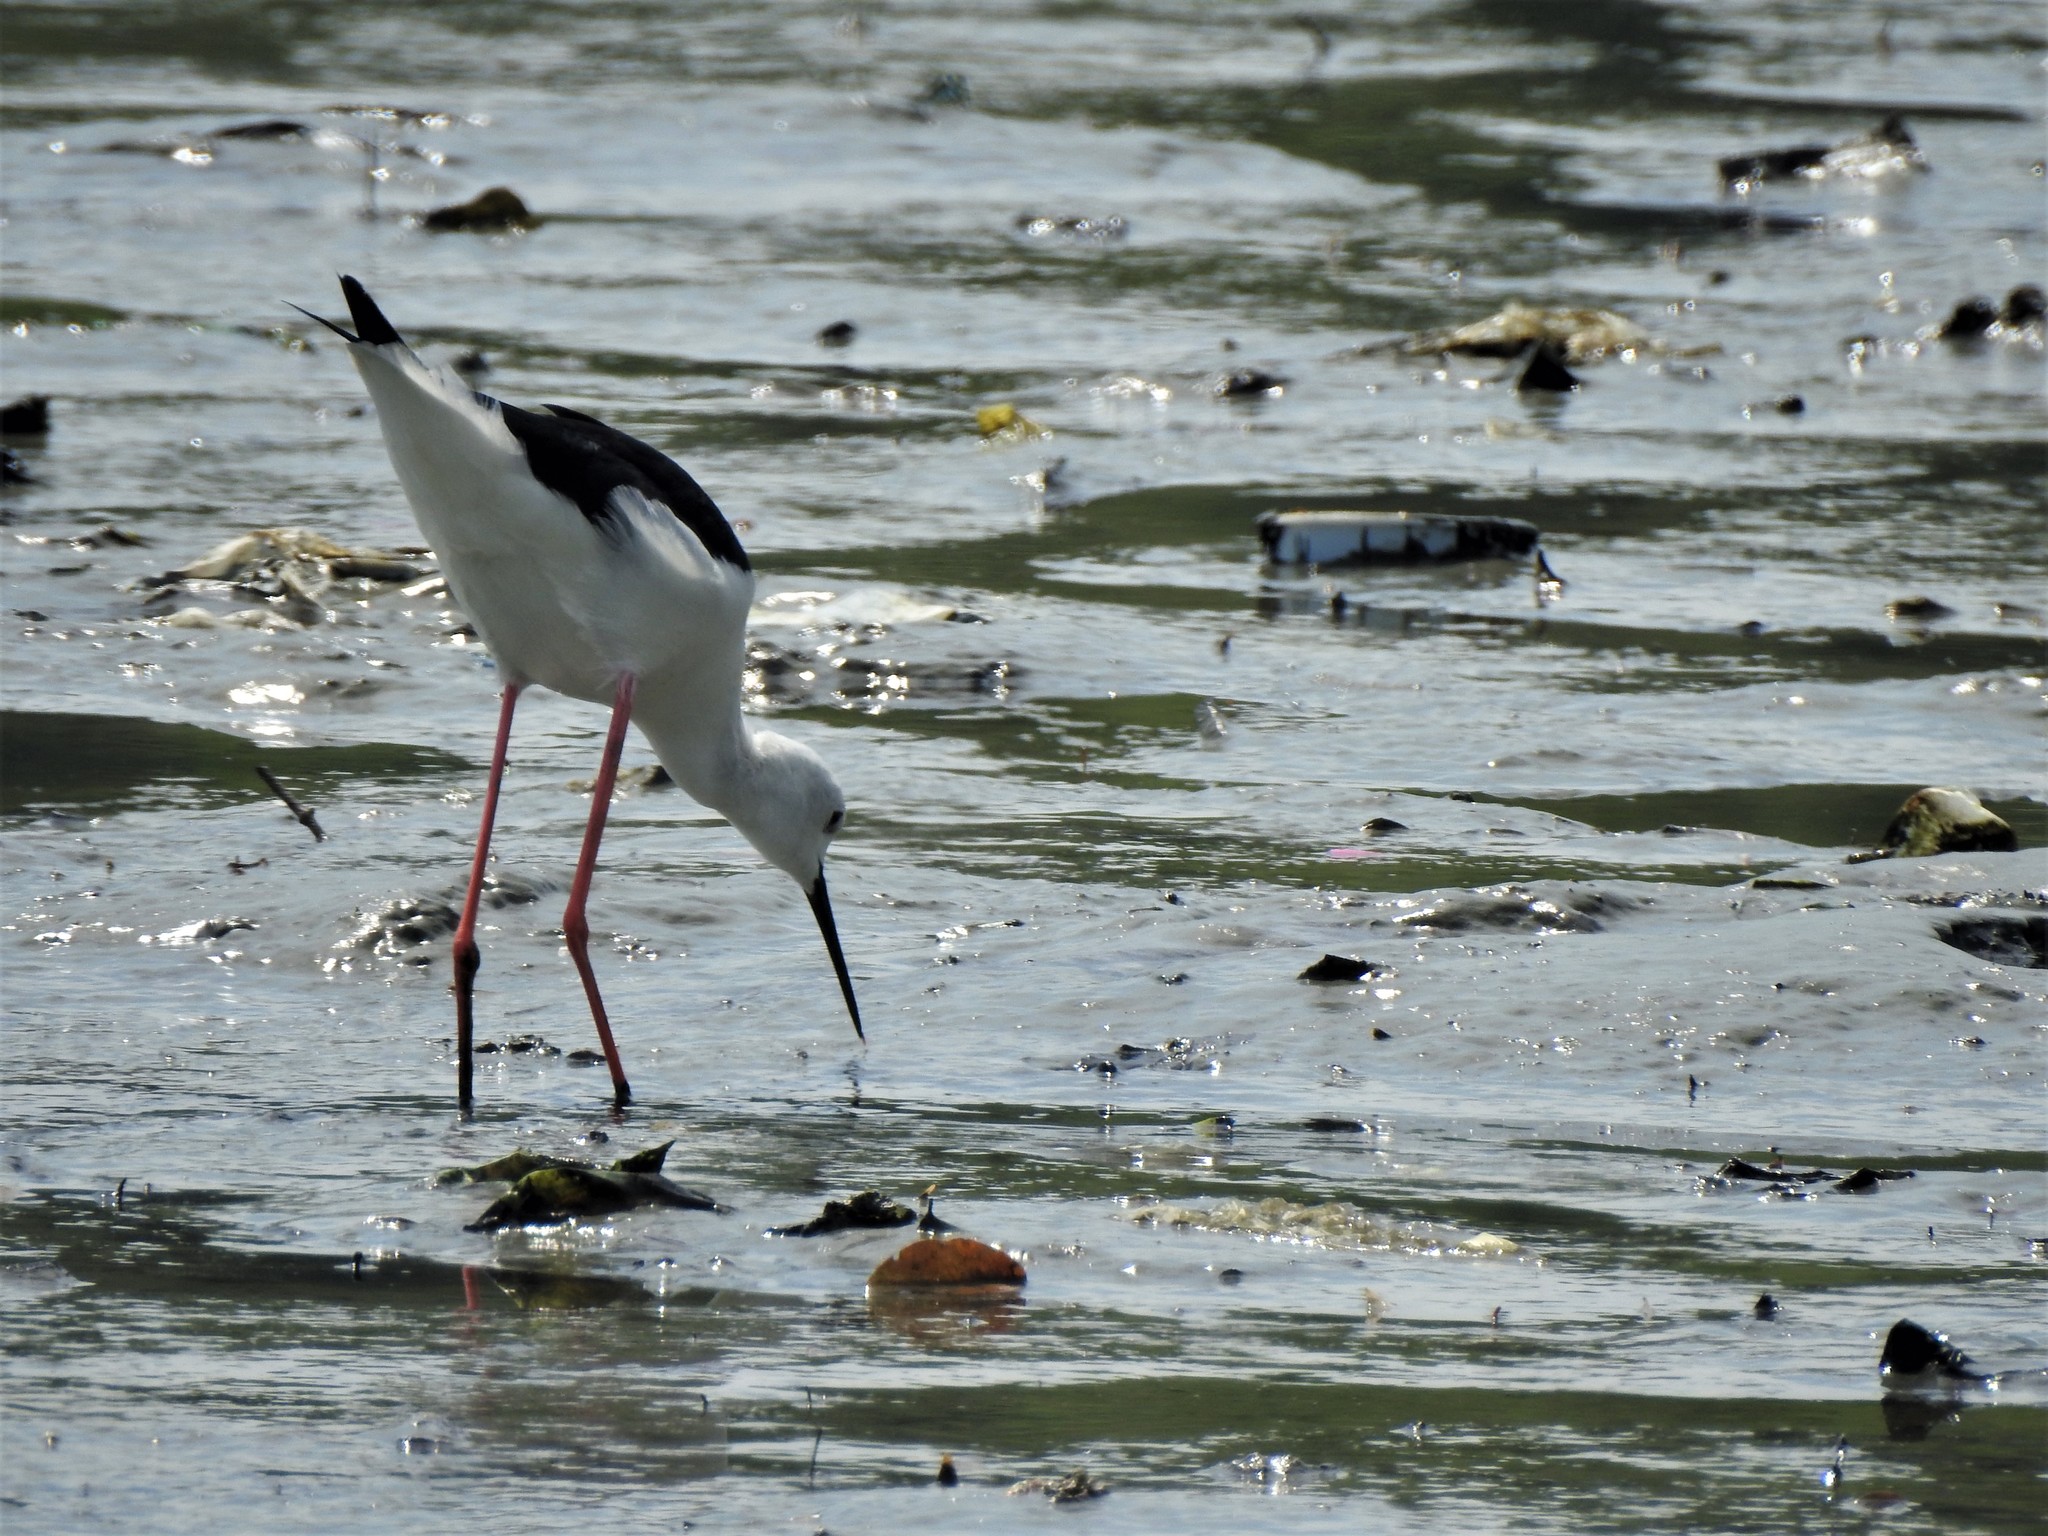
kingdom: Animalia
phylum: Chordata
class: Aves
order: Charadriiformes
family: Recurvirostridae
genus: Himantopus
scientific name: Himantopus himantopus
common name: Black-winged stilt
